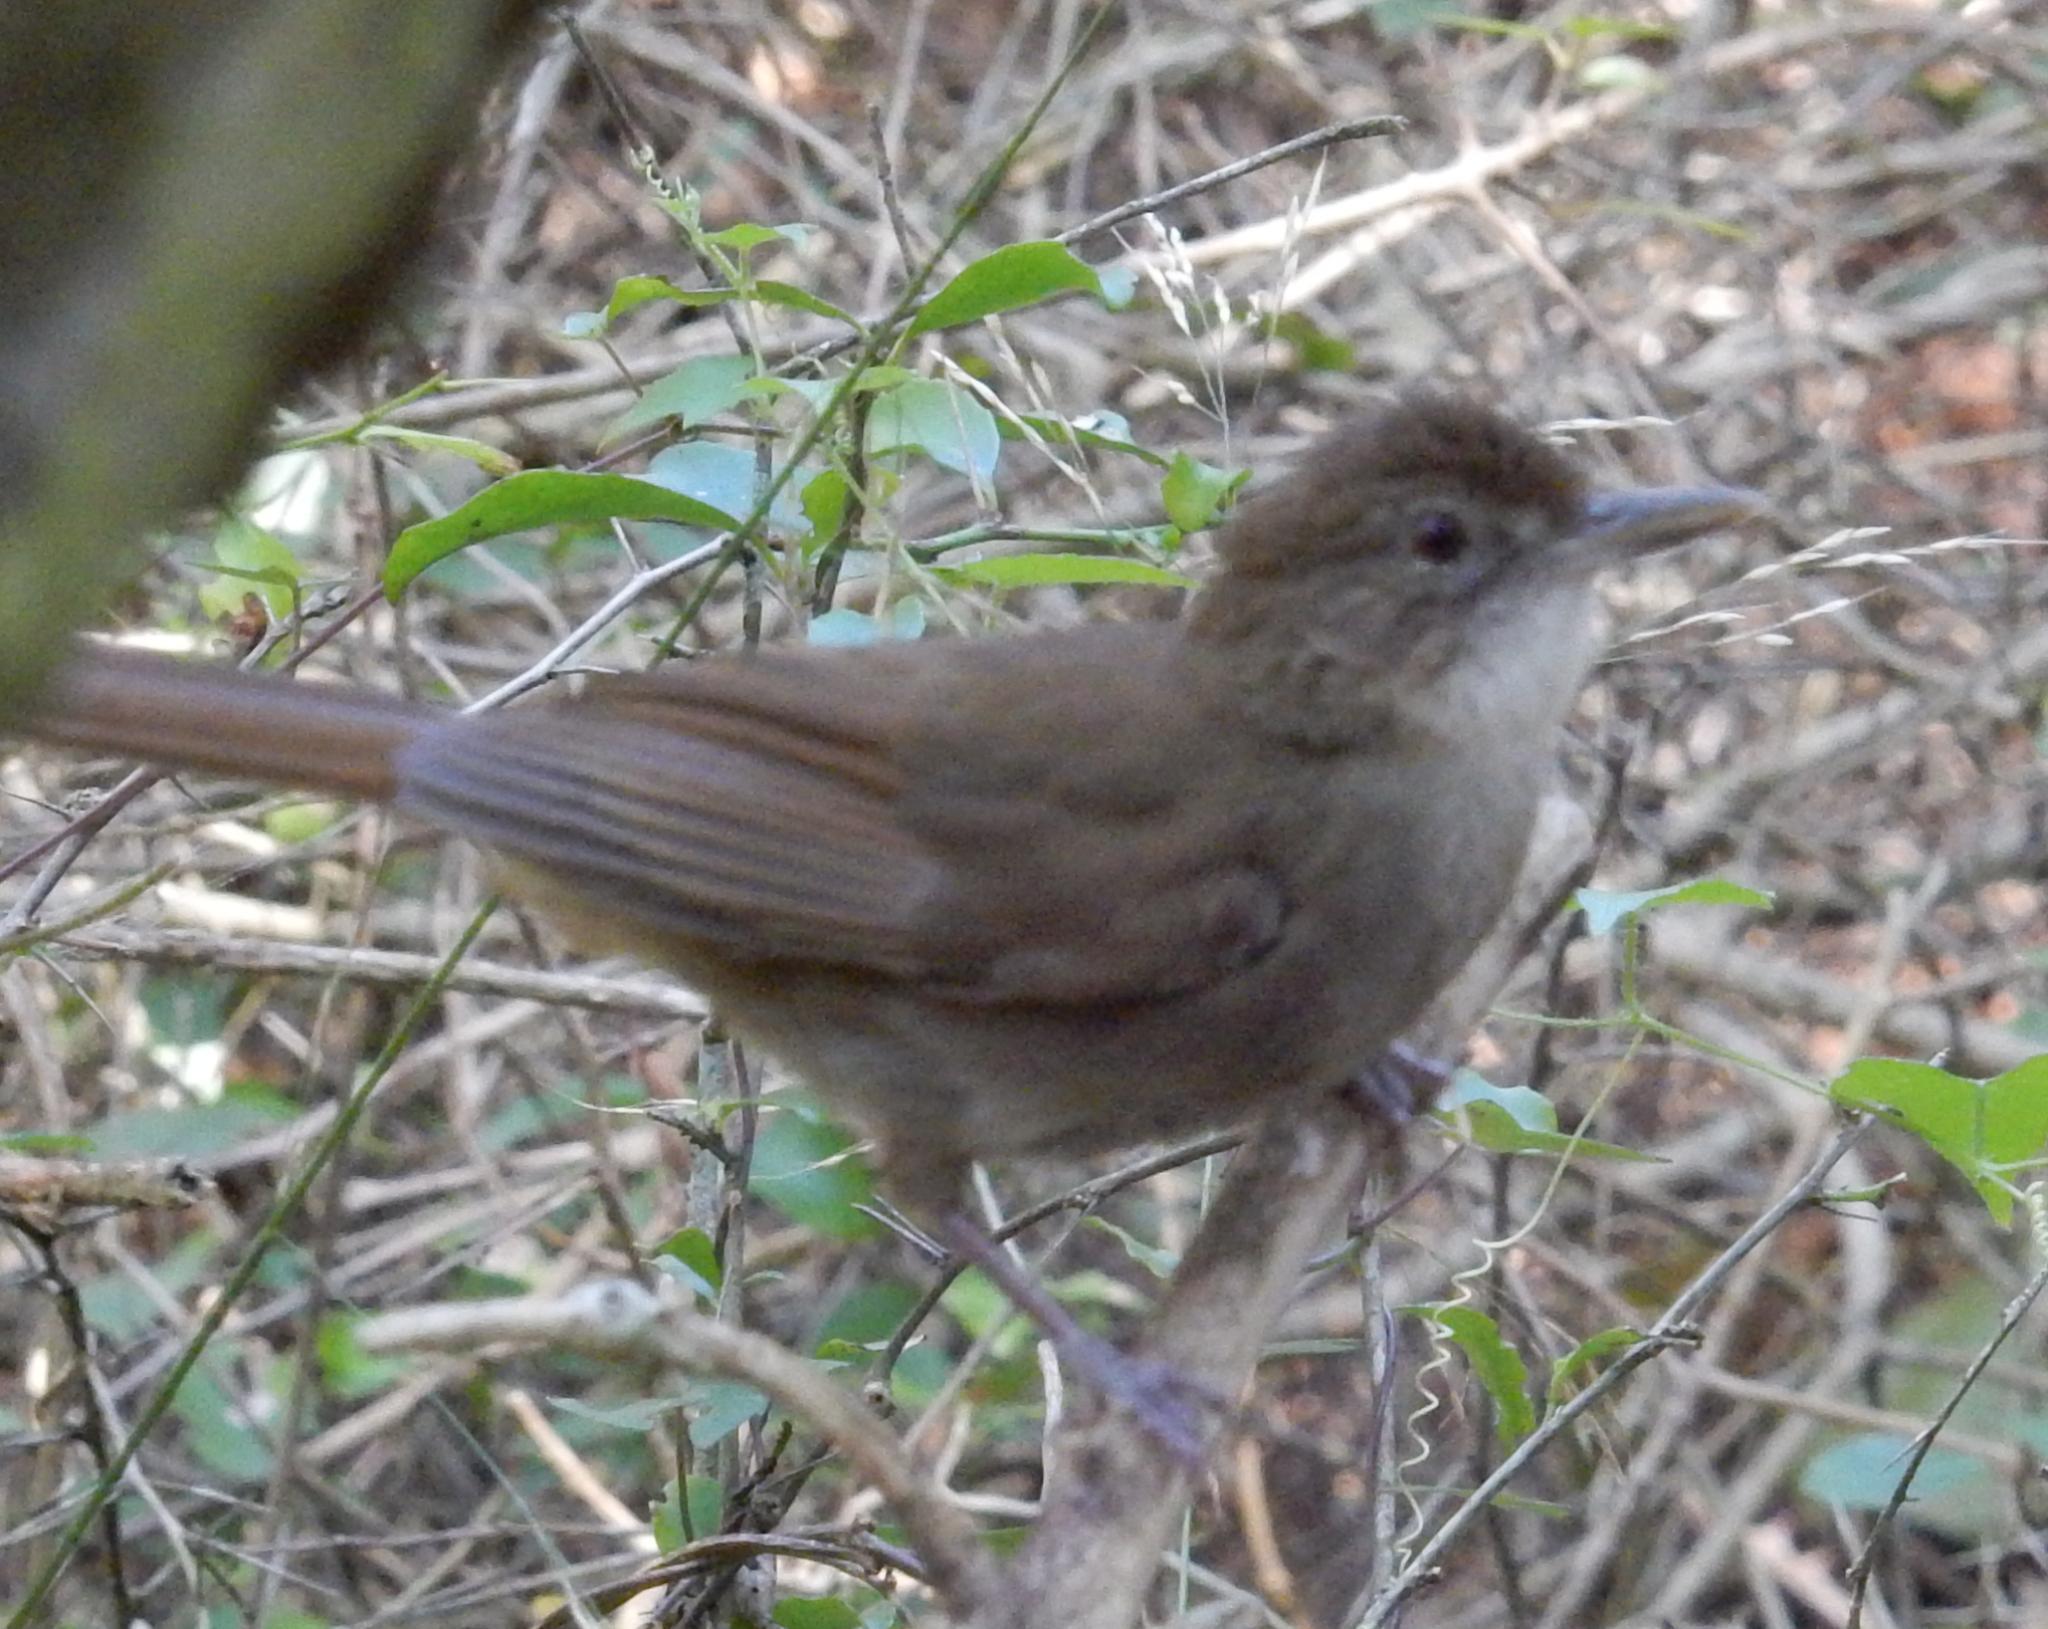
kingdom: Animalia
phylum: Chordata
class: Aves
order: Passeriformes
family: Pycnonotidae
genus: Phyllastrephus
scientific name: Phyllastrephus terrestris
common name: Terrestrial brownbul
